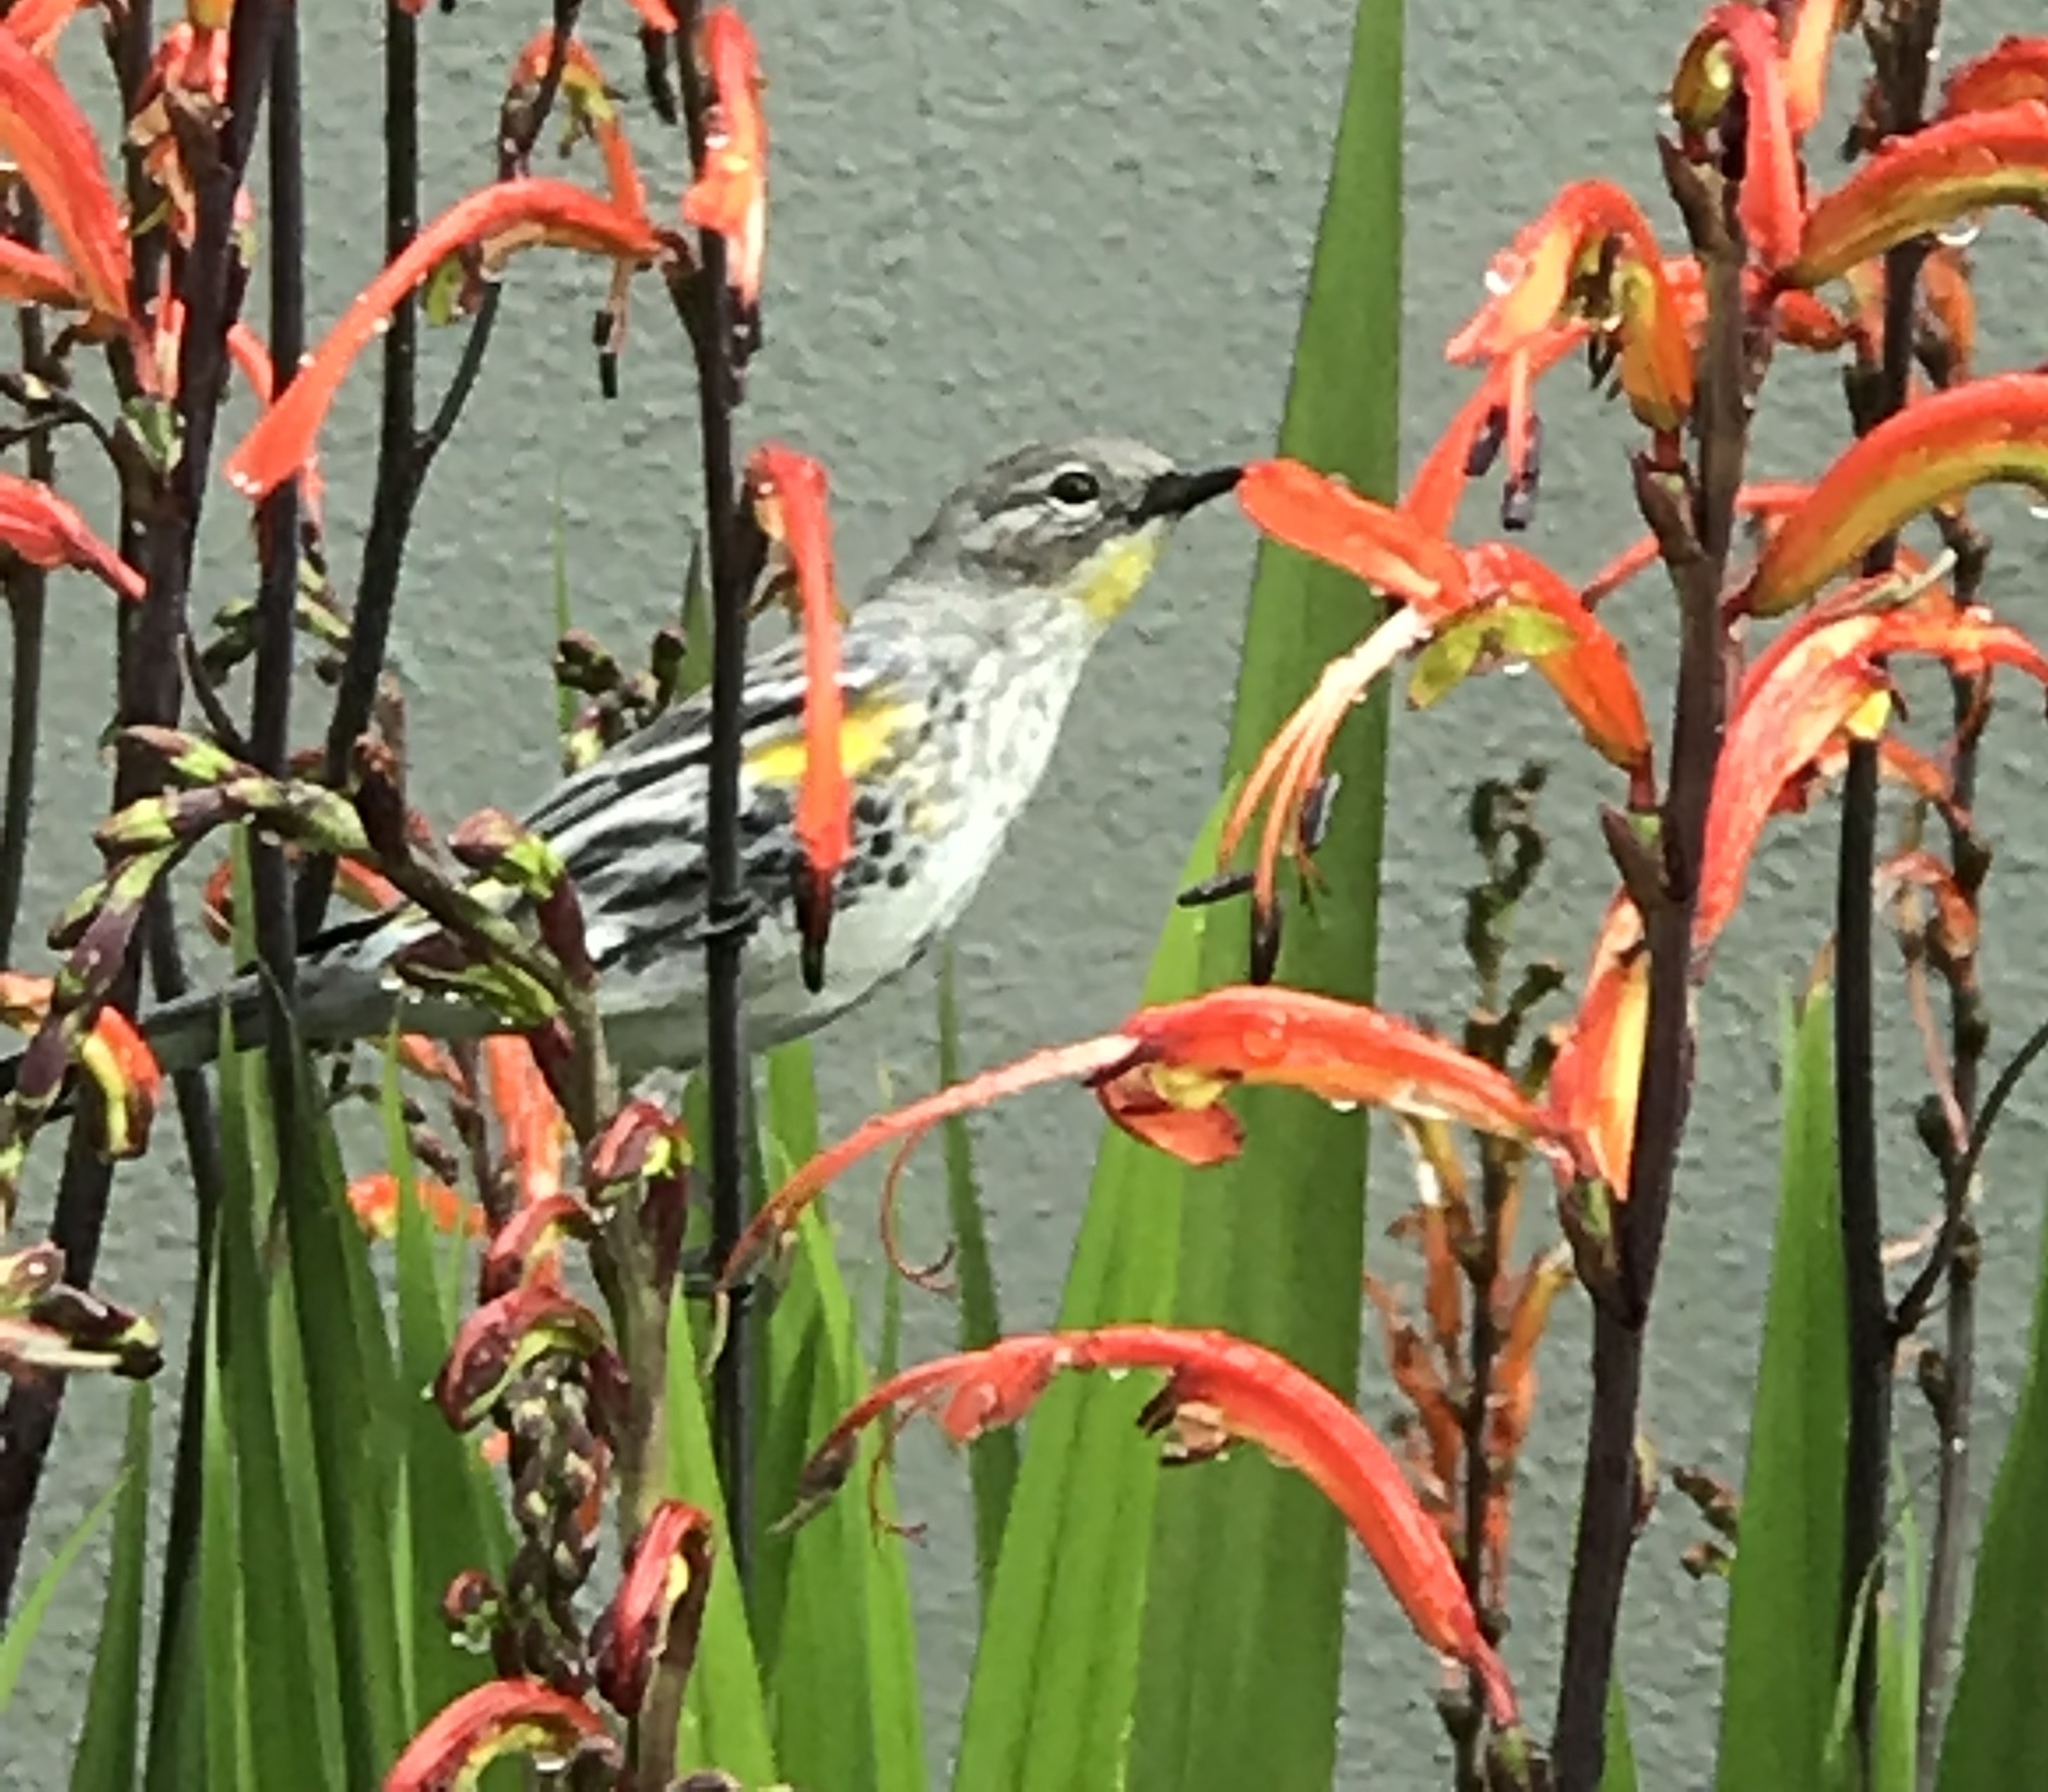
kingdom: Animalia
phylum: Chordata
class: Aves
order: Passeriformes
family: Parulidae
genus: Setophaga
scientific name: Setophaga coronata
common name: Myrtle warbler
